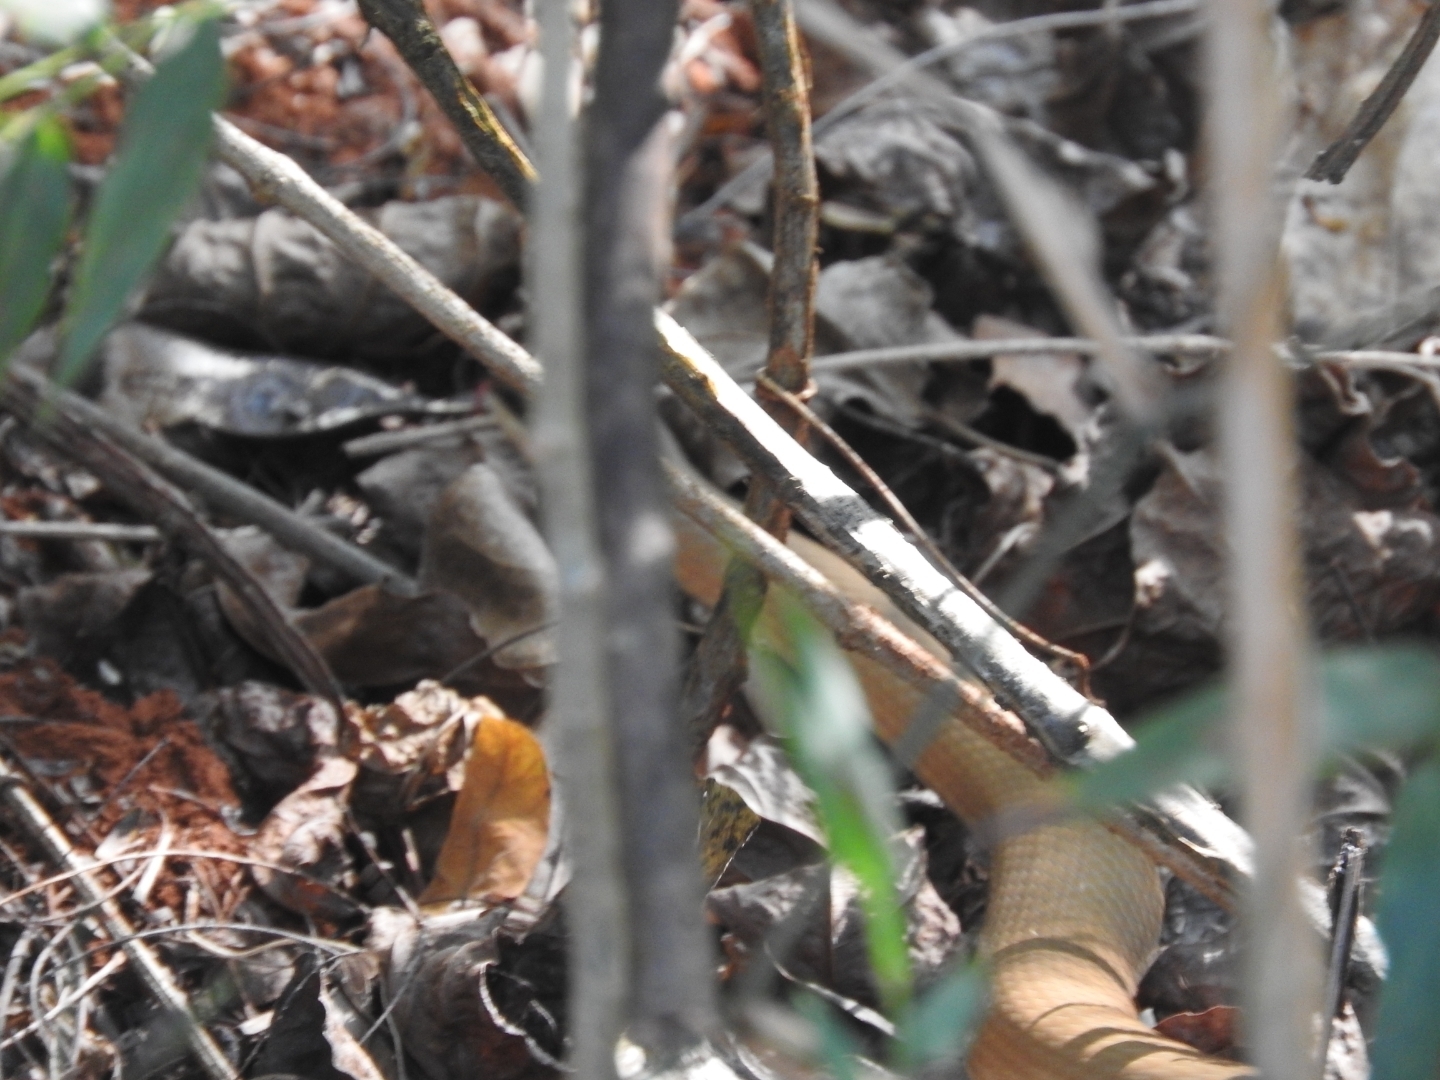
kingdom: Animalia
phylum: Chordata
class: Squamata
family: Colubridae
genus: Conophis
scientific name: Conophis lineatus
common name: Road guarder
